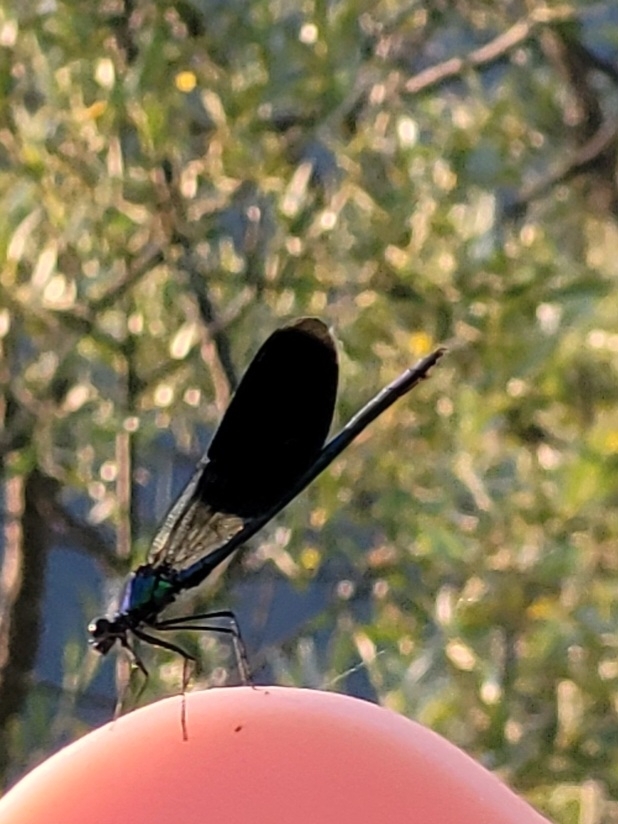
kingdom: Animalia
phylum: Arthropoda
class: Insecta
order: Odonata
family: Calopterygidae
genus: Calopteryx
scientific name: Calopteryx splendens
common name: Banded demoiselle
